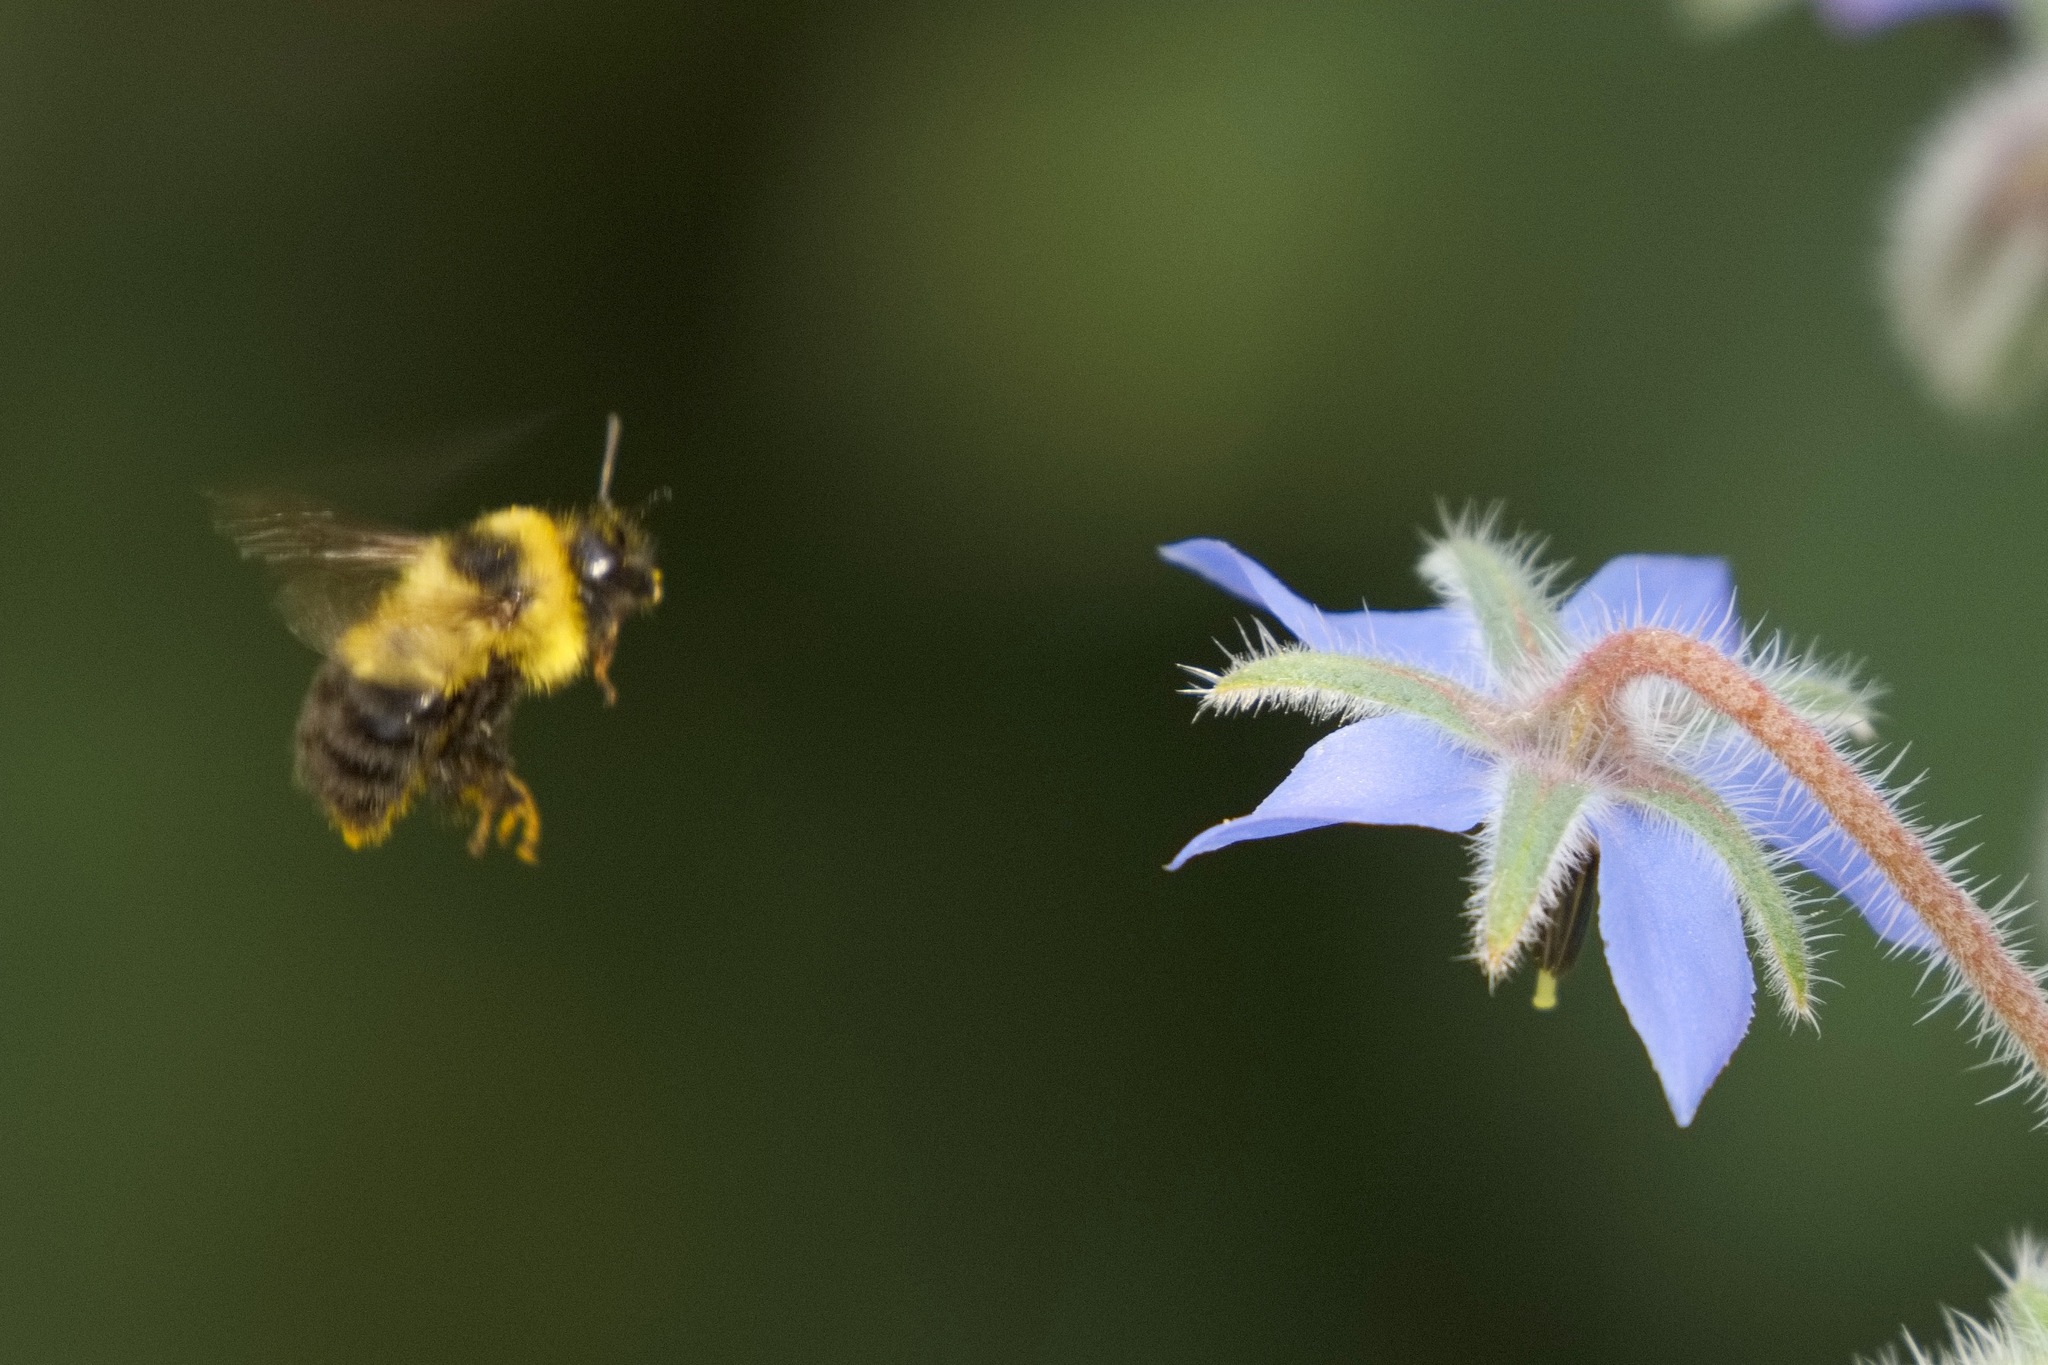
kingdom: Animalia
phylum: Arthropoda
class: Insecta
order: Hymenoptera
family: Apidae
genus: Bombus
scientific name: Bombus rufocinctus
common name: Red-belted bumble bee
